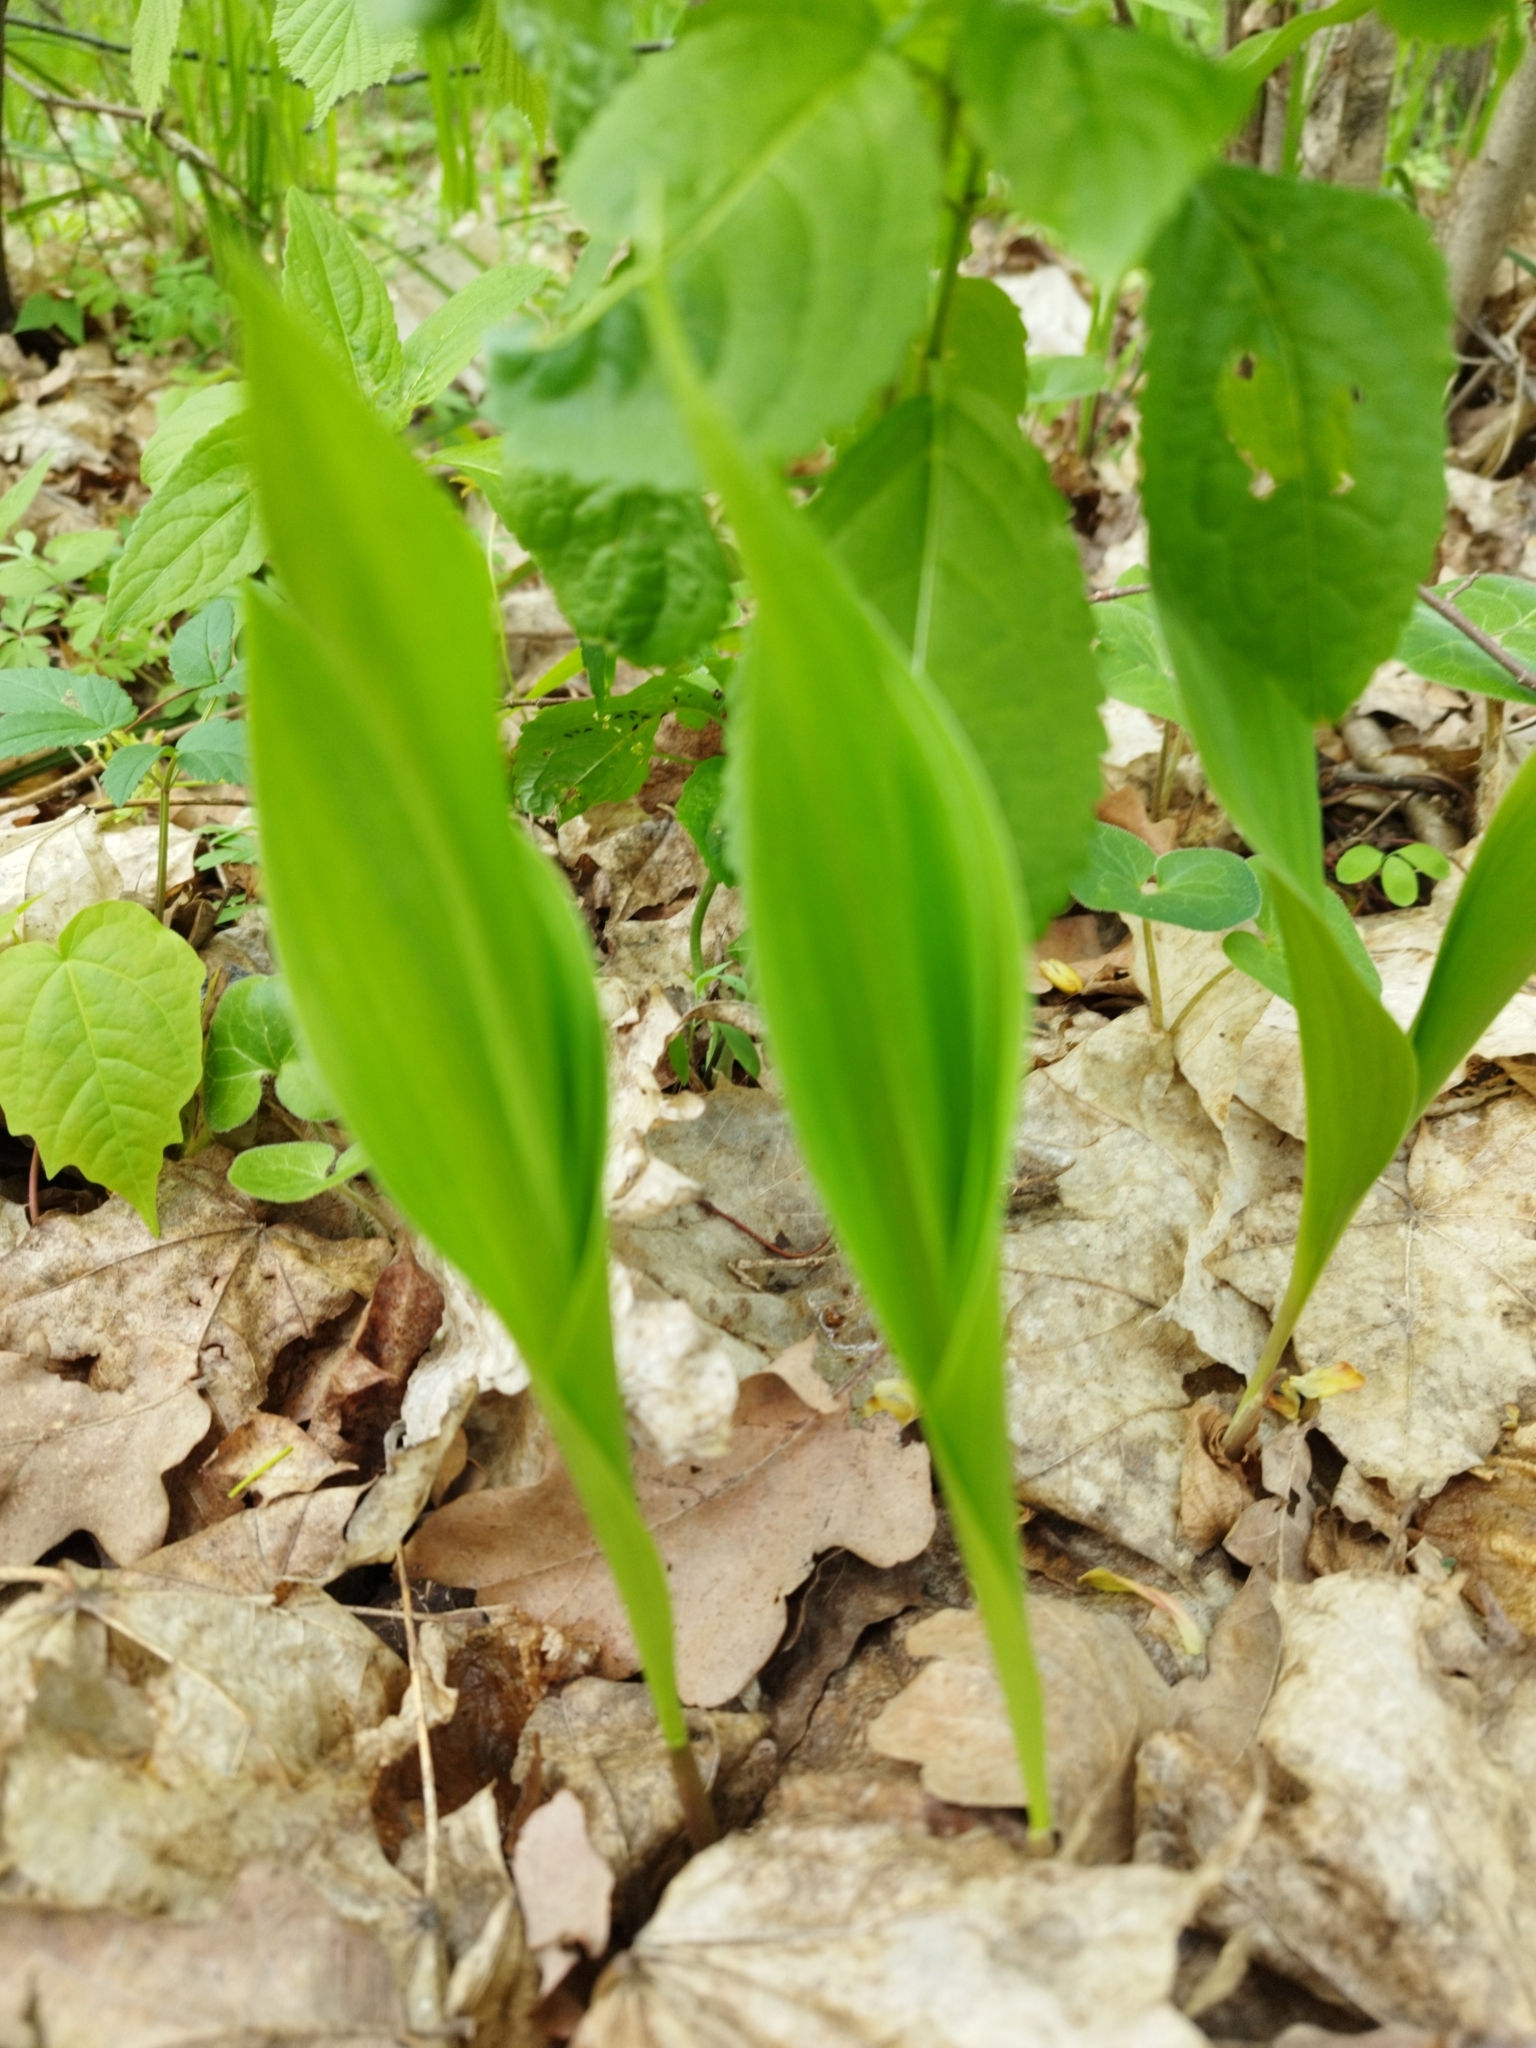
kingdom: Plantae
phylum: Tracheophyta
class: Liliopsida
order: Asparagales
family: Asparagaceae
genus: Convallaria
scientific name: Convallaria majalis
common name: Lily-of-the-valley
